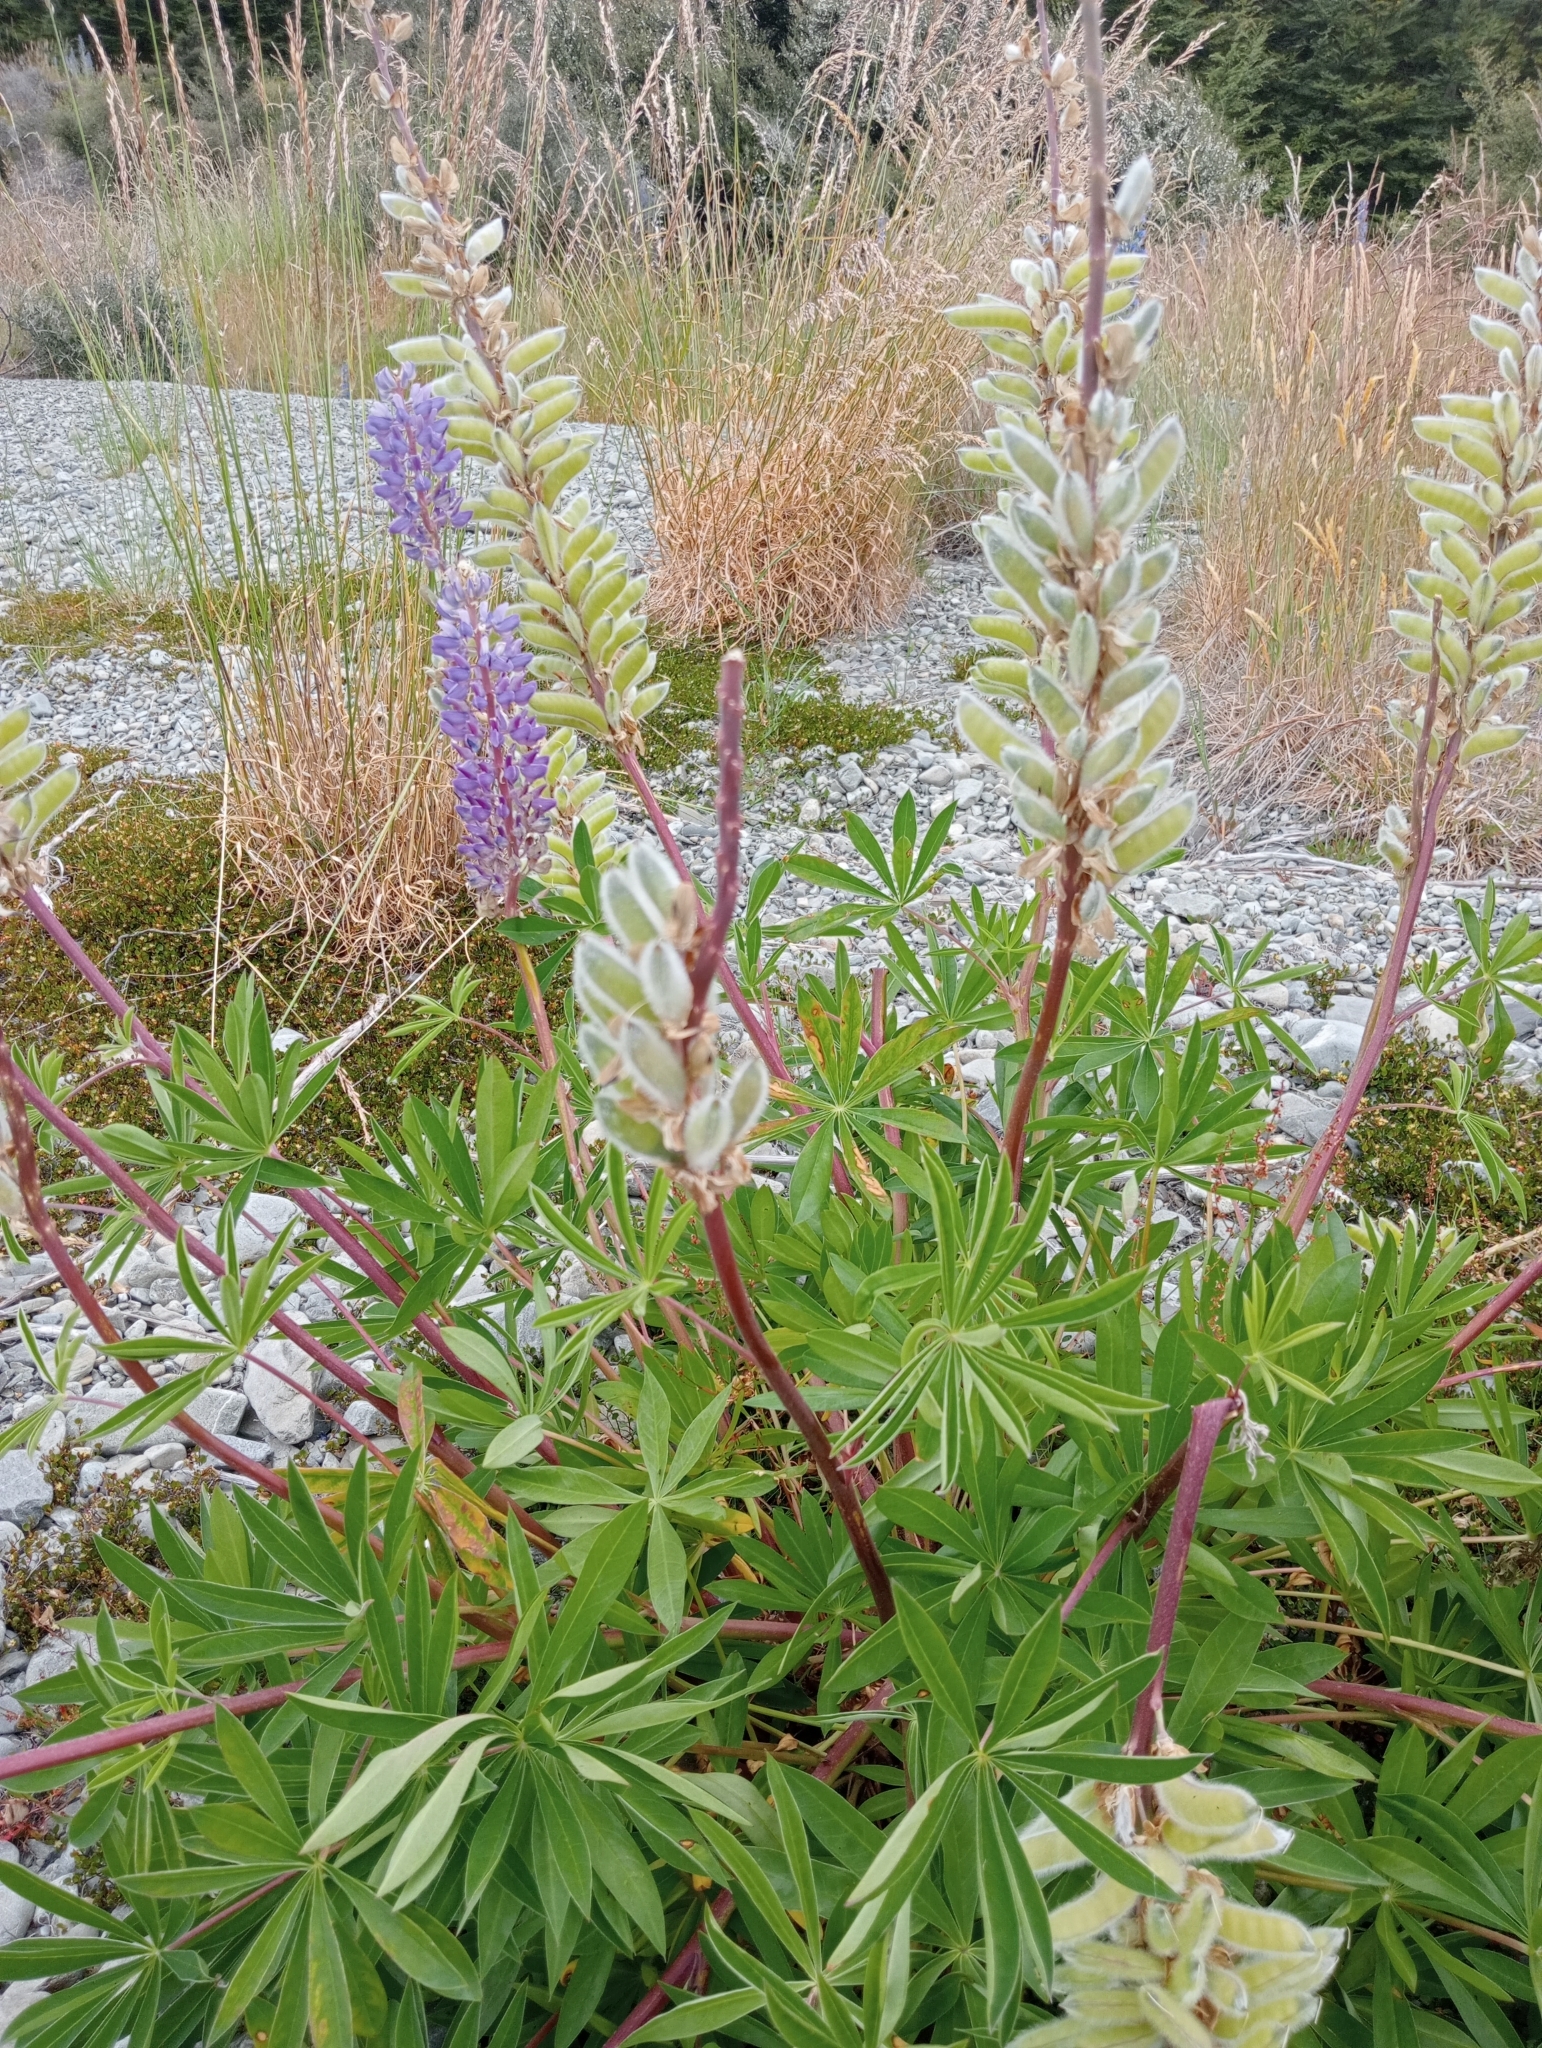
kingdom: Plantae
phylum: Tracheophyta
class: Magnoliopsida
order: Fabales
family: Fabaceae
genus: Lupinus
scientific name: Lupinus polyphyllus
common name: Garden lupin
